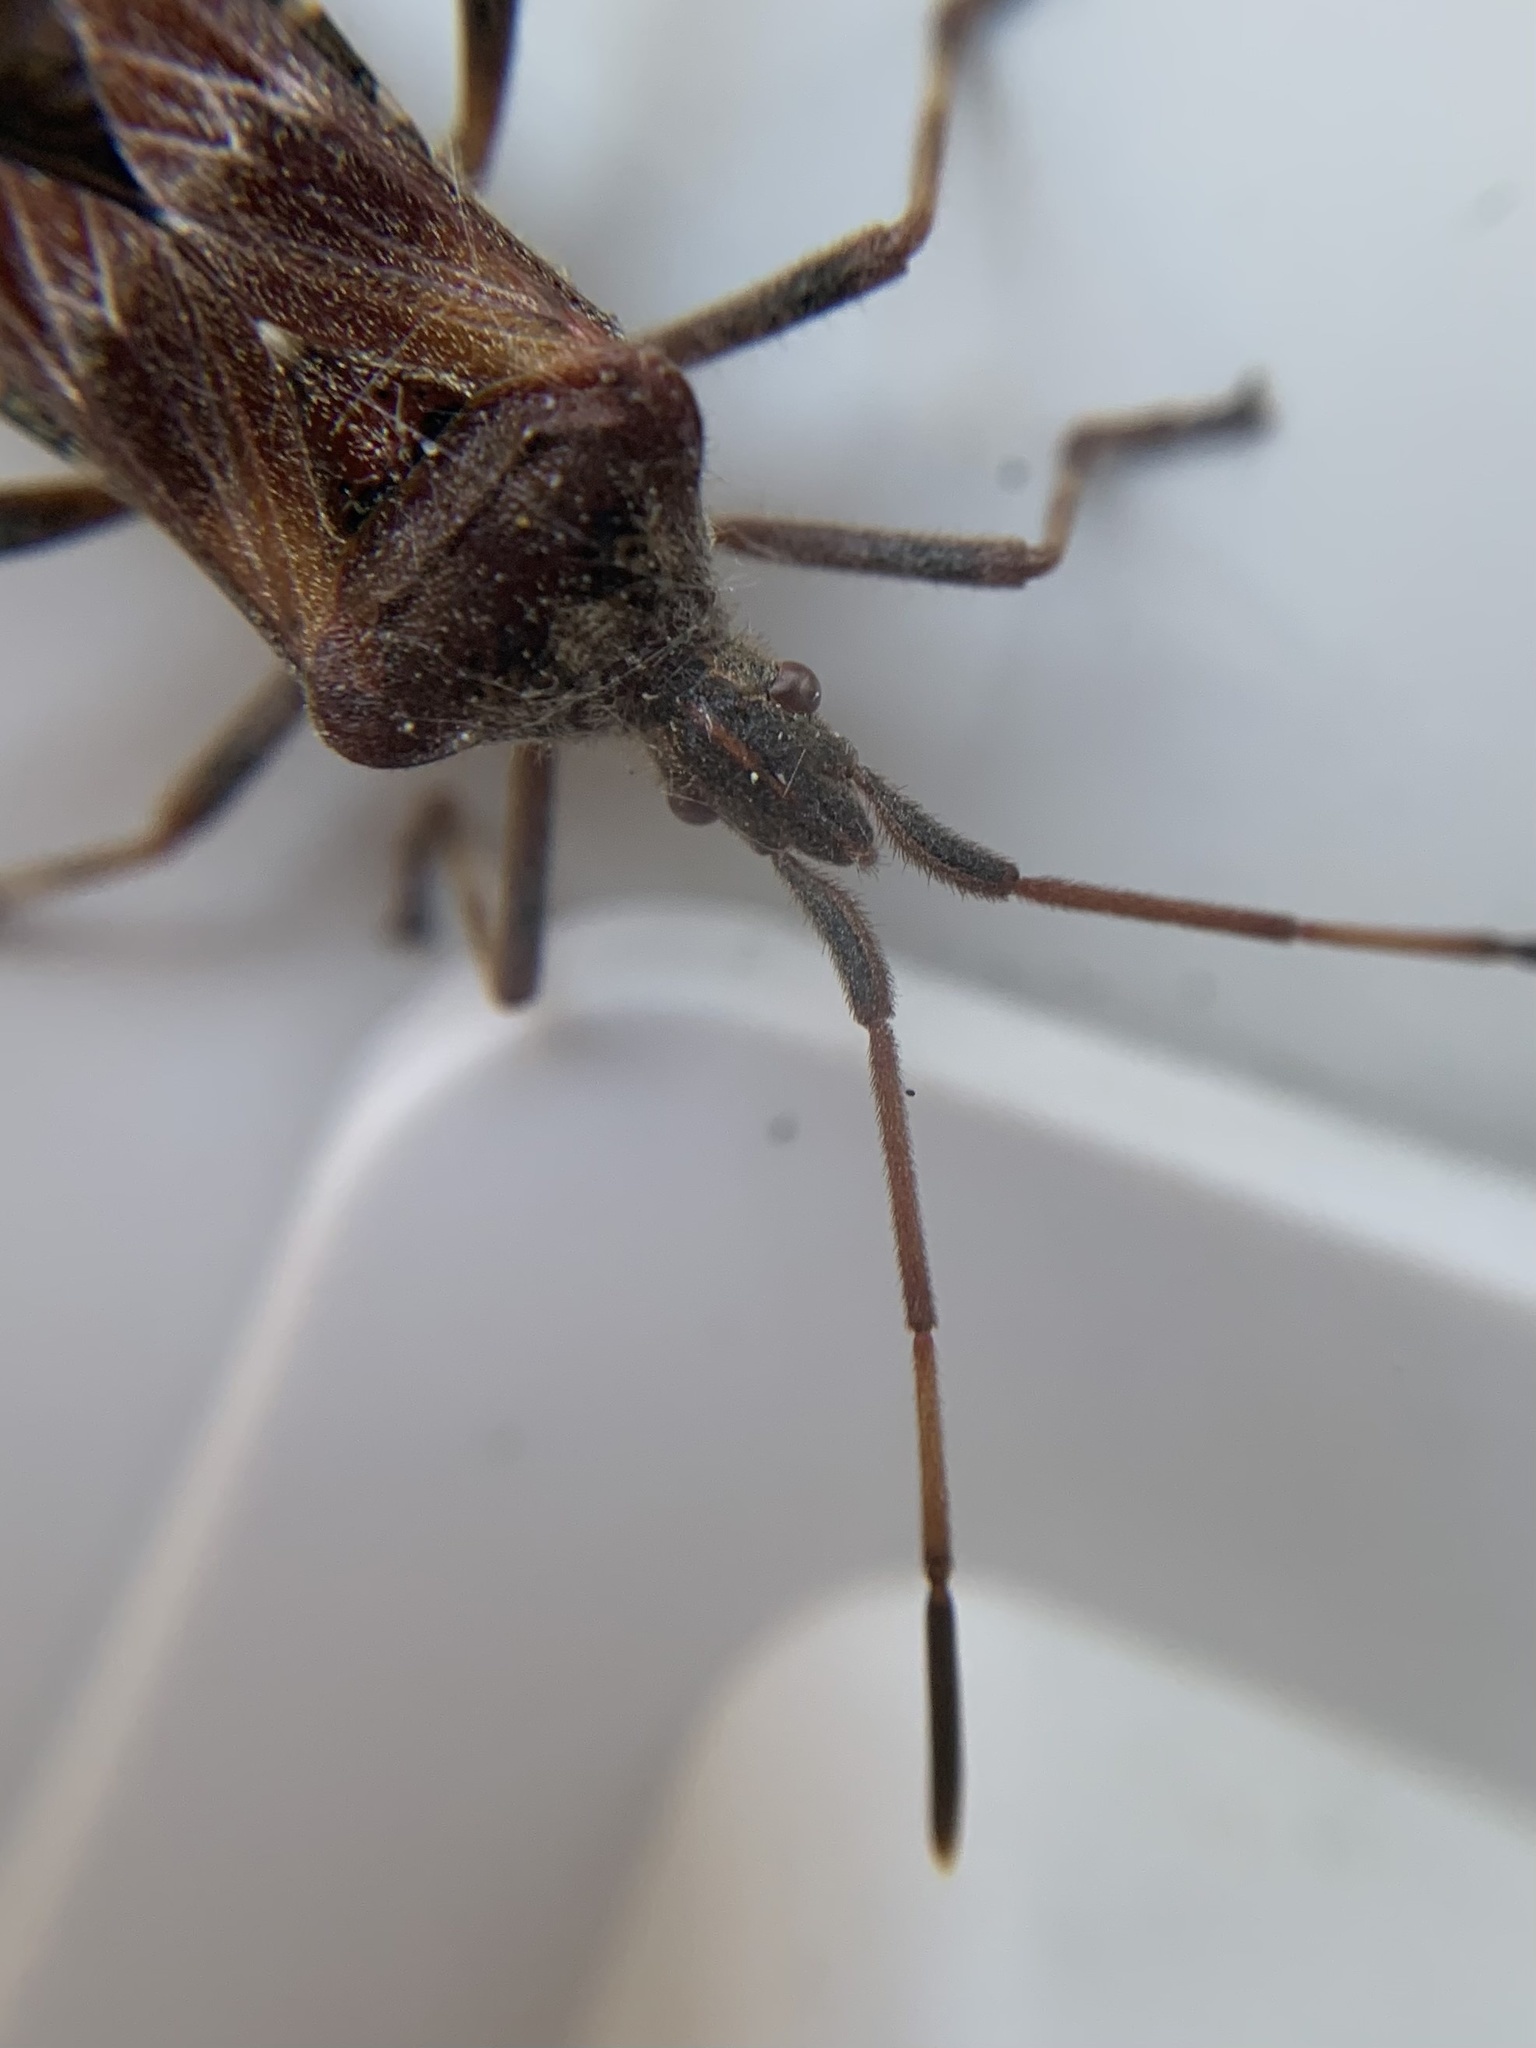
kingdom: Animalia
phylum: Arthropoda
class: Insecta
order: Hemiptera
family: Coreidae
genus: Leptoglossus
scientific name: Leptoglossus occidentalis
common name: Western conifer-seed bug
